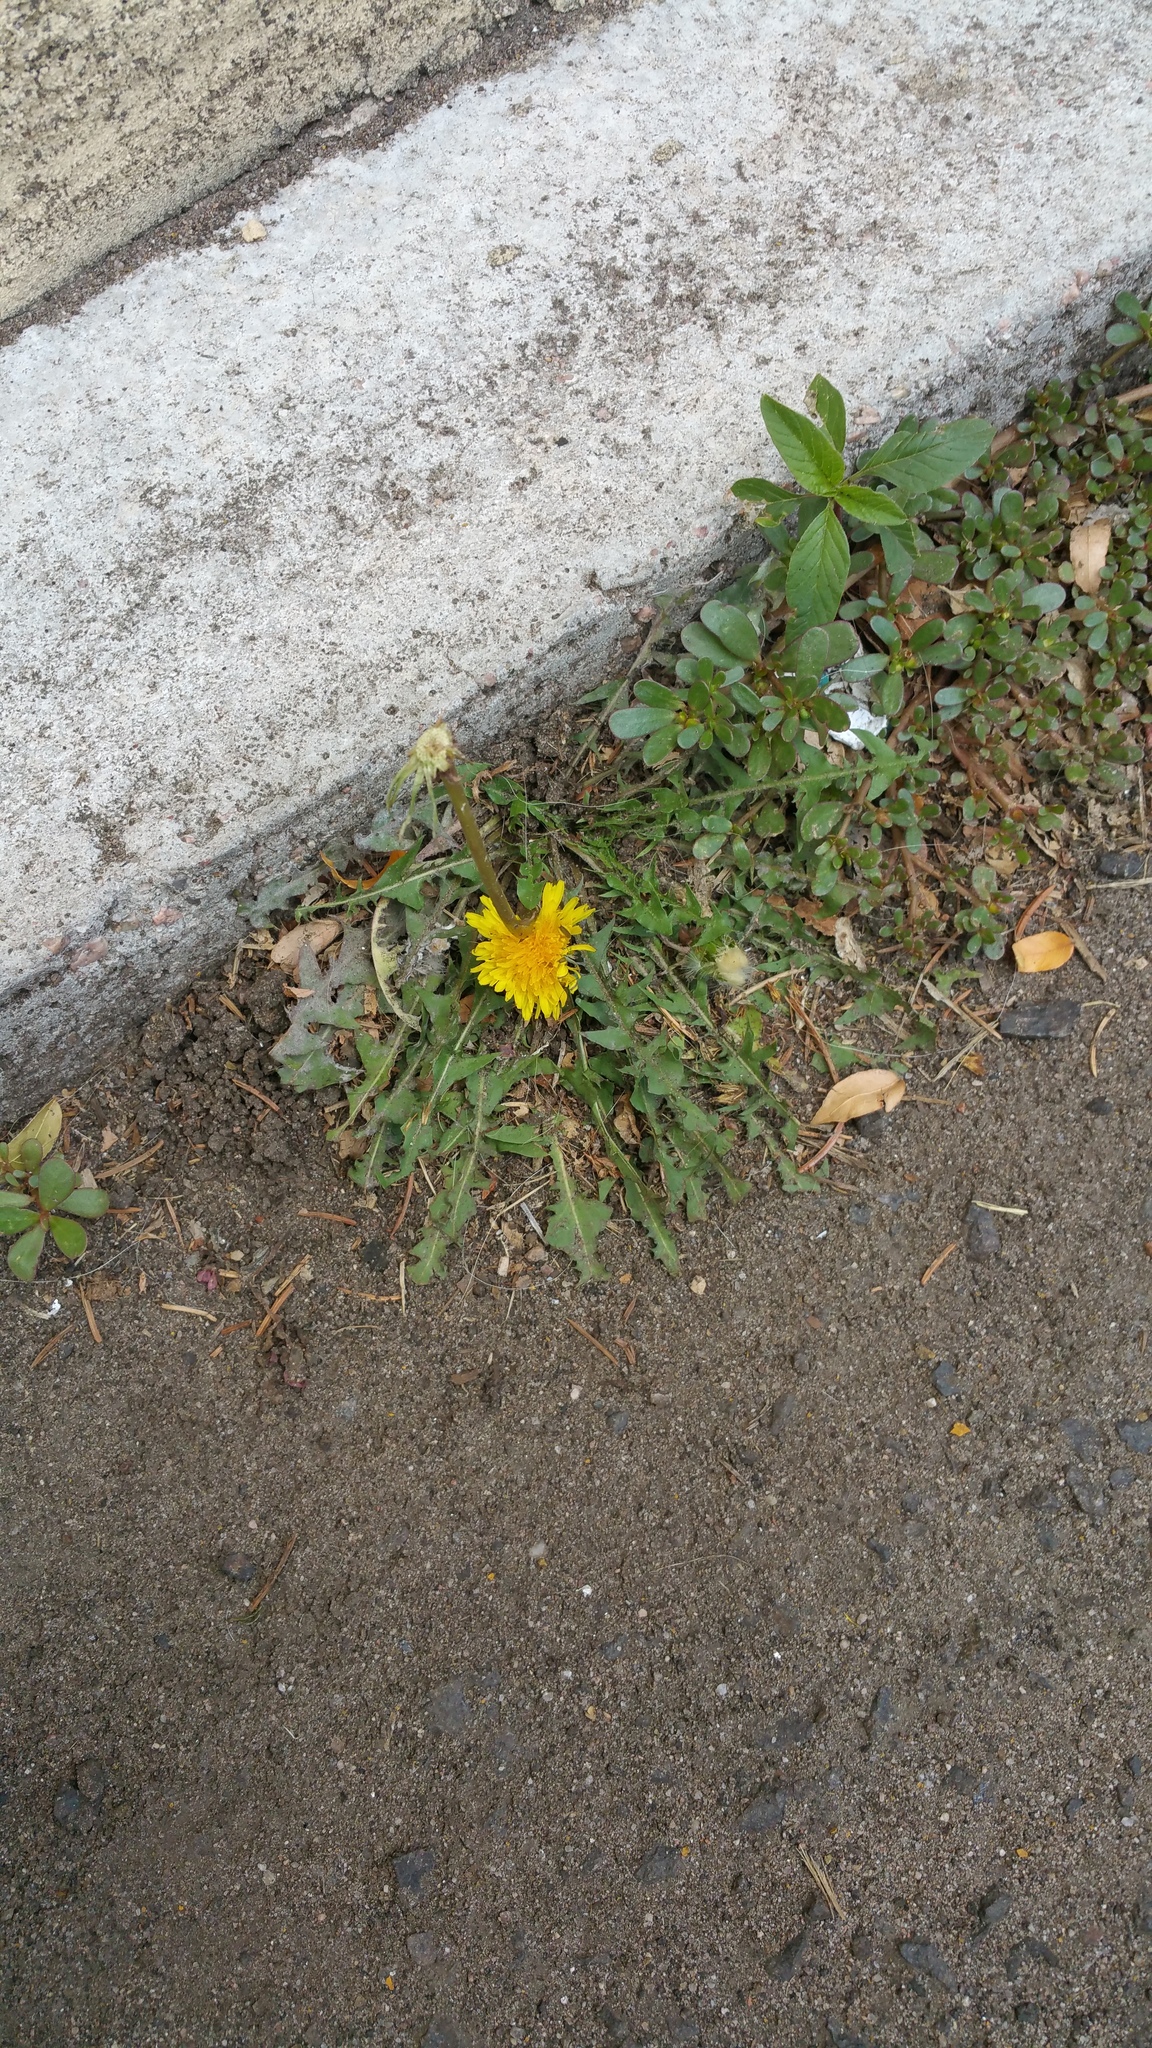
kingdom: Plantae
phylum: Tracheophyta
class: Magnoliopsida
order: Asterales
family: Asteraceae
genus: Taraxacum
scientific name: Taraxacum officinale
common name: Common dandelion
